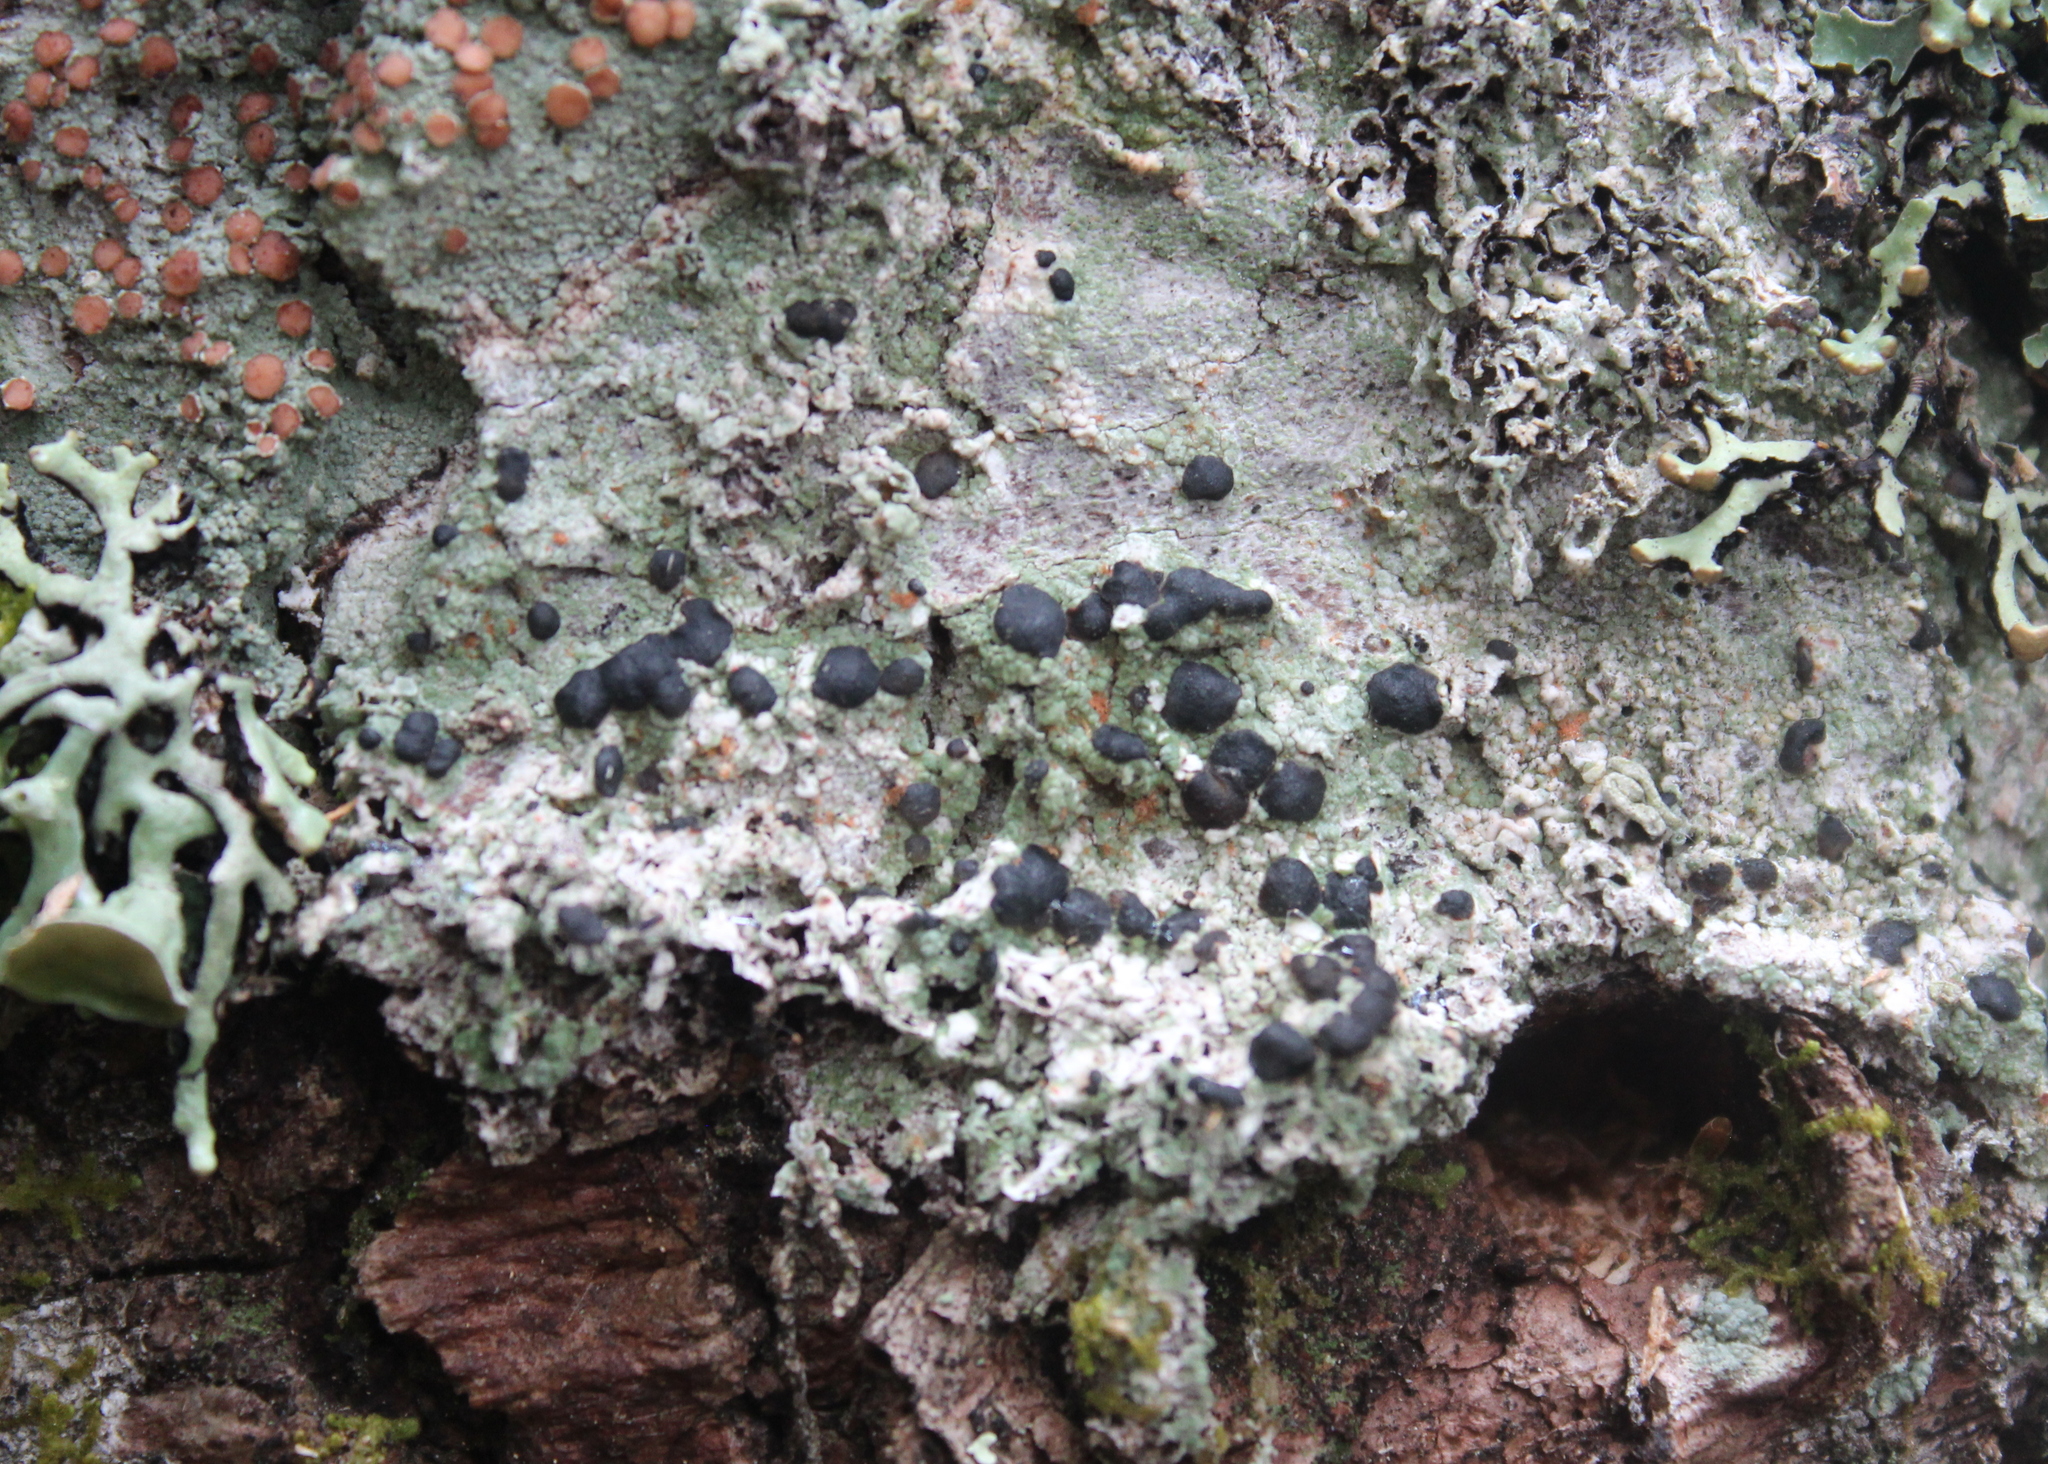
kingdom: Fungi
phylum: Ascomycota
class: Lecanoromycetes
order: Lecanorales
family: Tephromelataceae
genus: Mycoblastus
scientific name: Mycoblastus sanguinarius
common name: Bloody-heart lichen
